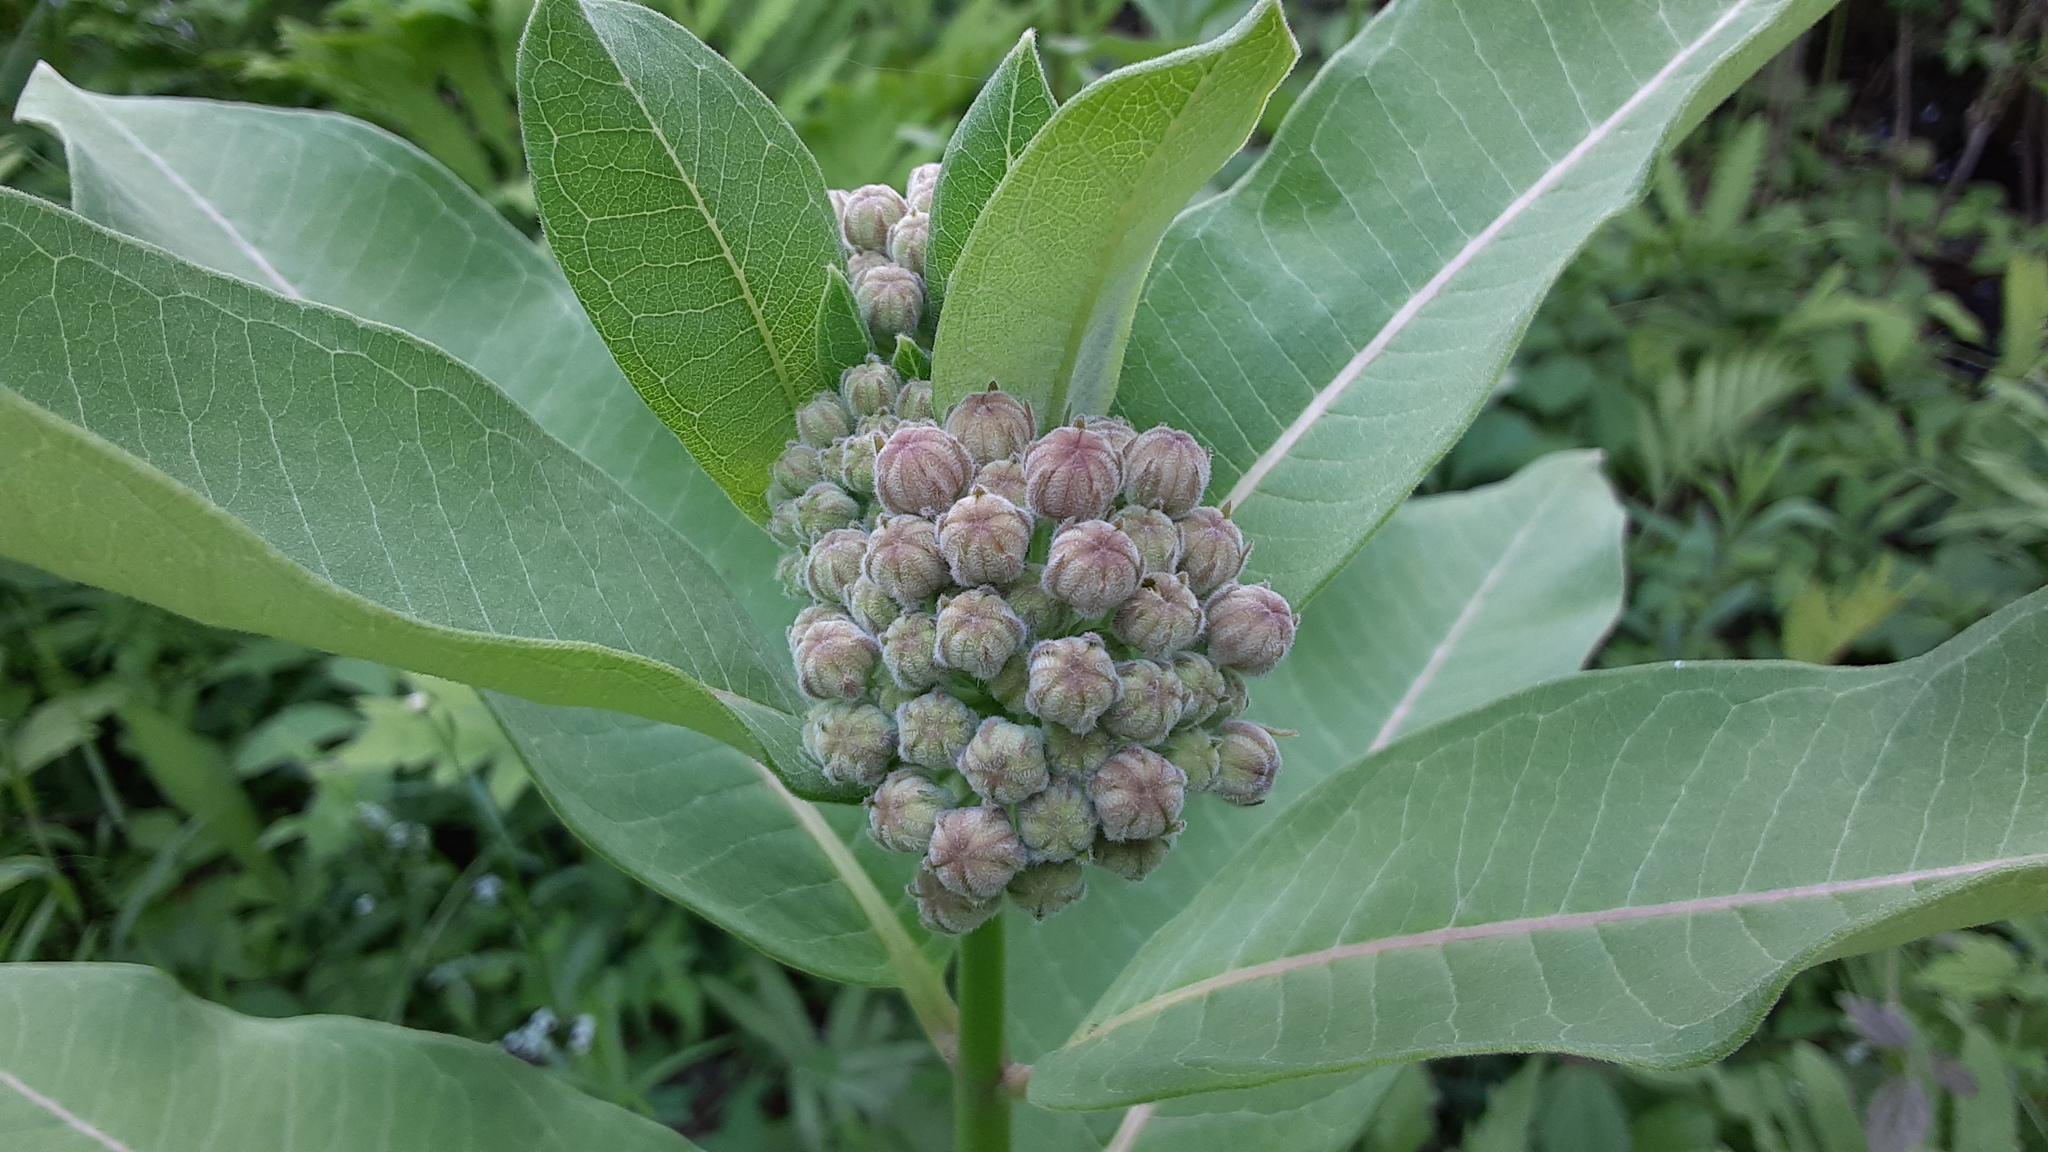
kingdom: Plantae
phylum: Tracheophyta
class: Magnoliopsida
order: Gentianales
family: Apocynaceae
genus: Asclepias
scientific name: Asclepias syriaca
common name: Common milkweed
